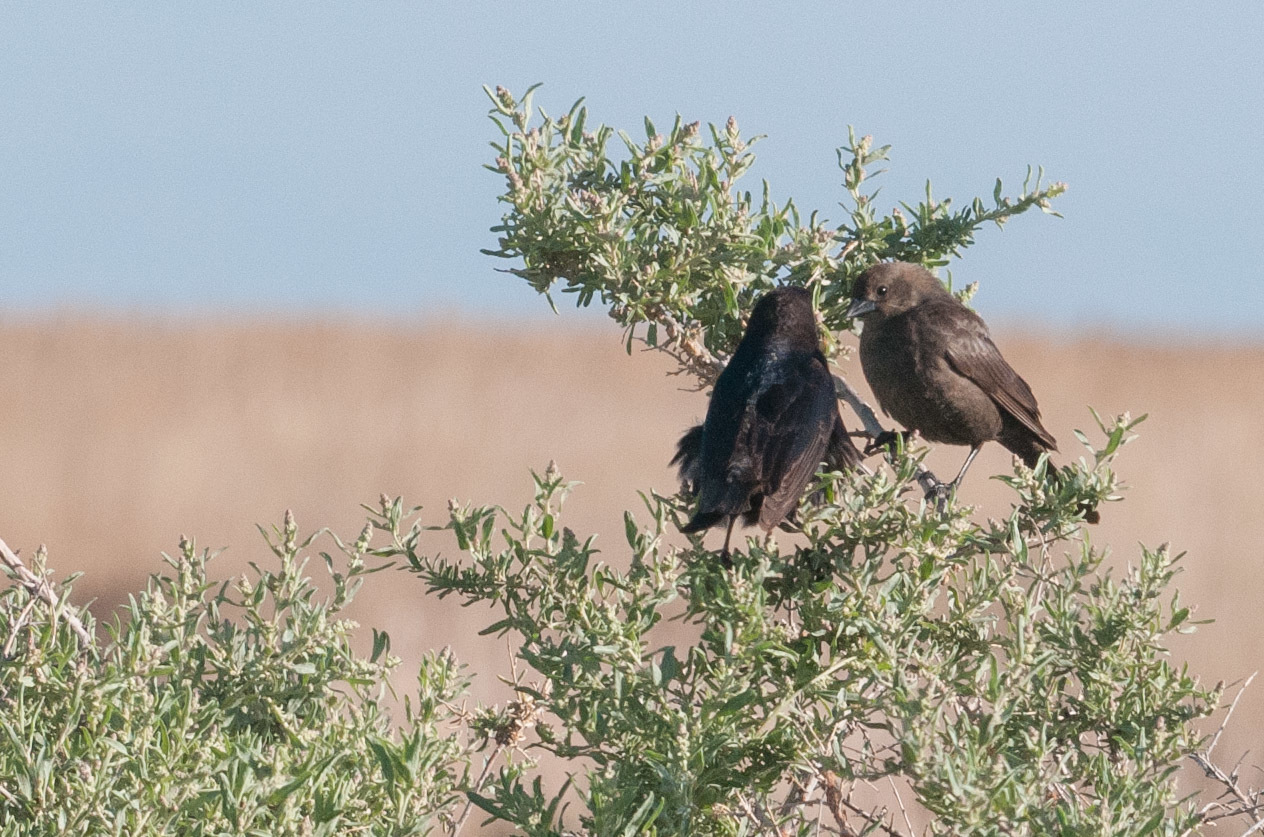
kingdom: Animalia
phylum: Chordata
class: Aves
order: Passeriformes
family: Icteridae
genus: Molothrus
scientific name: Molothrus ater
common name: Brown-headed cowbird
